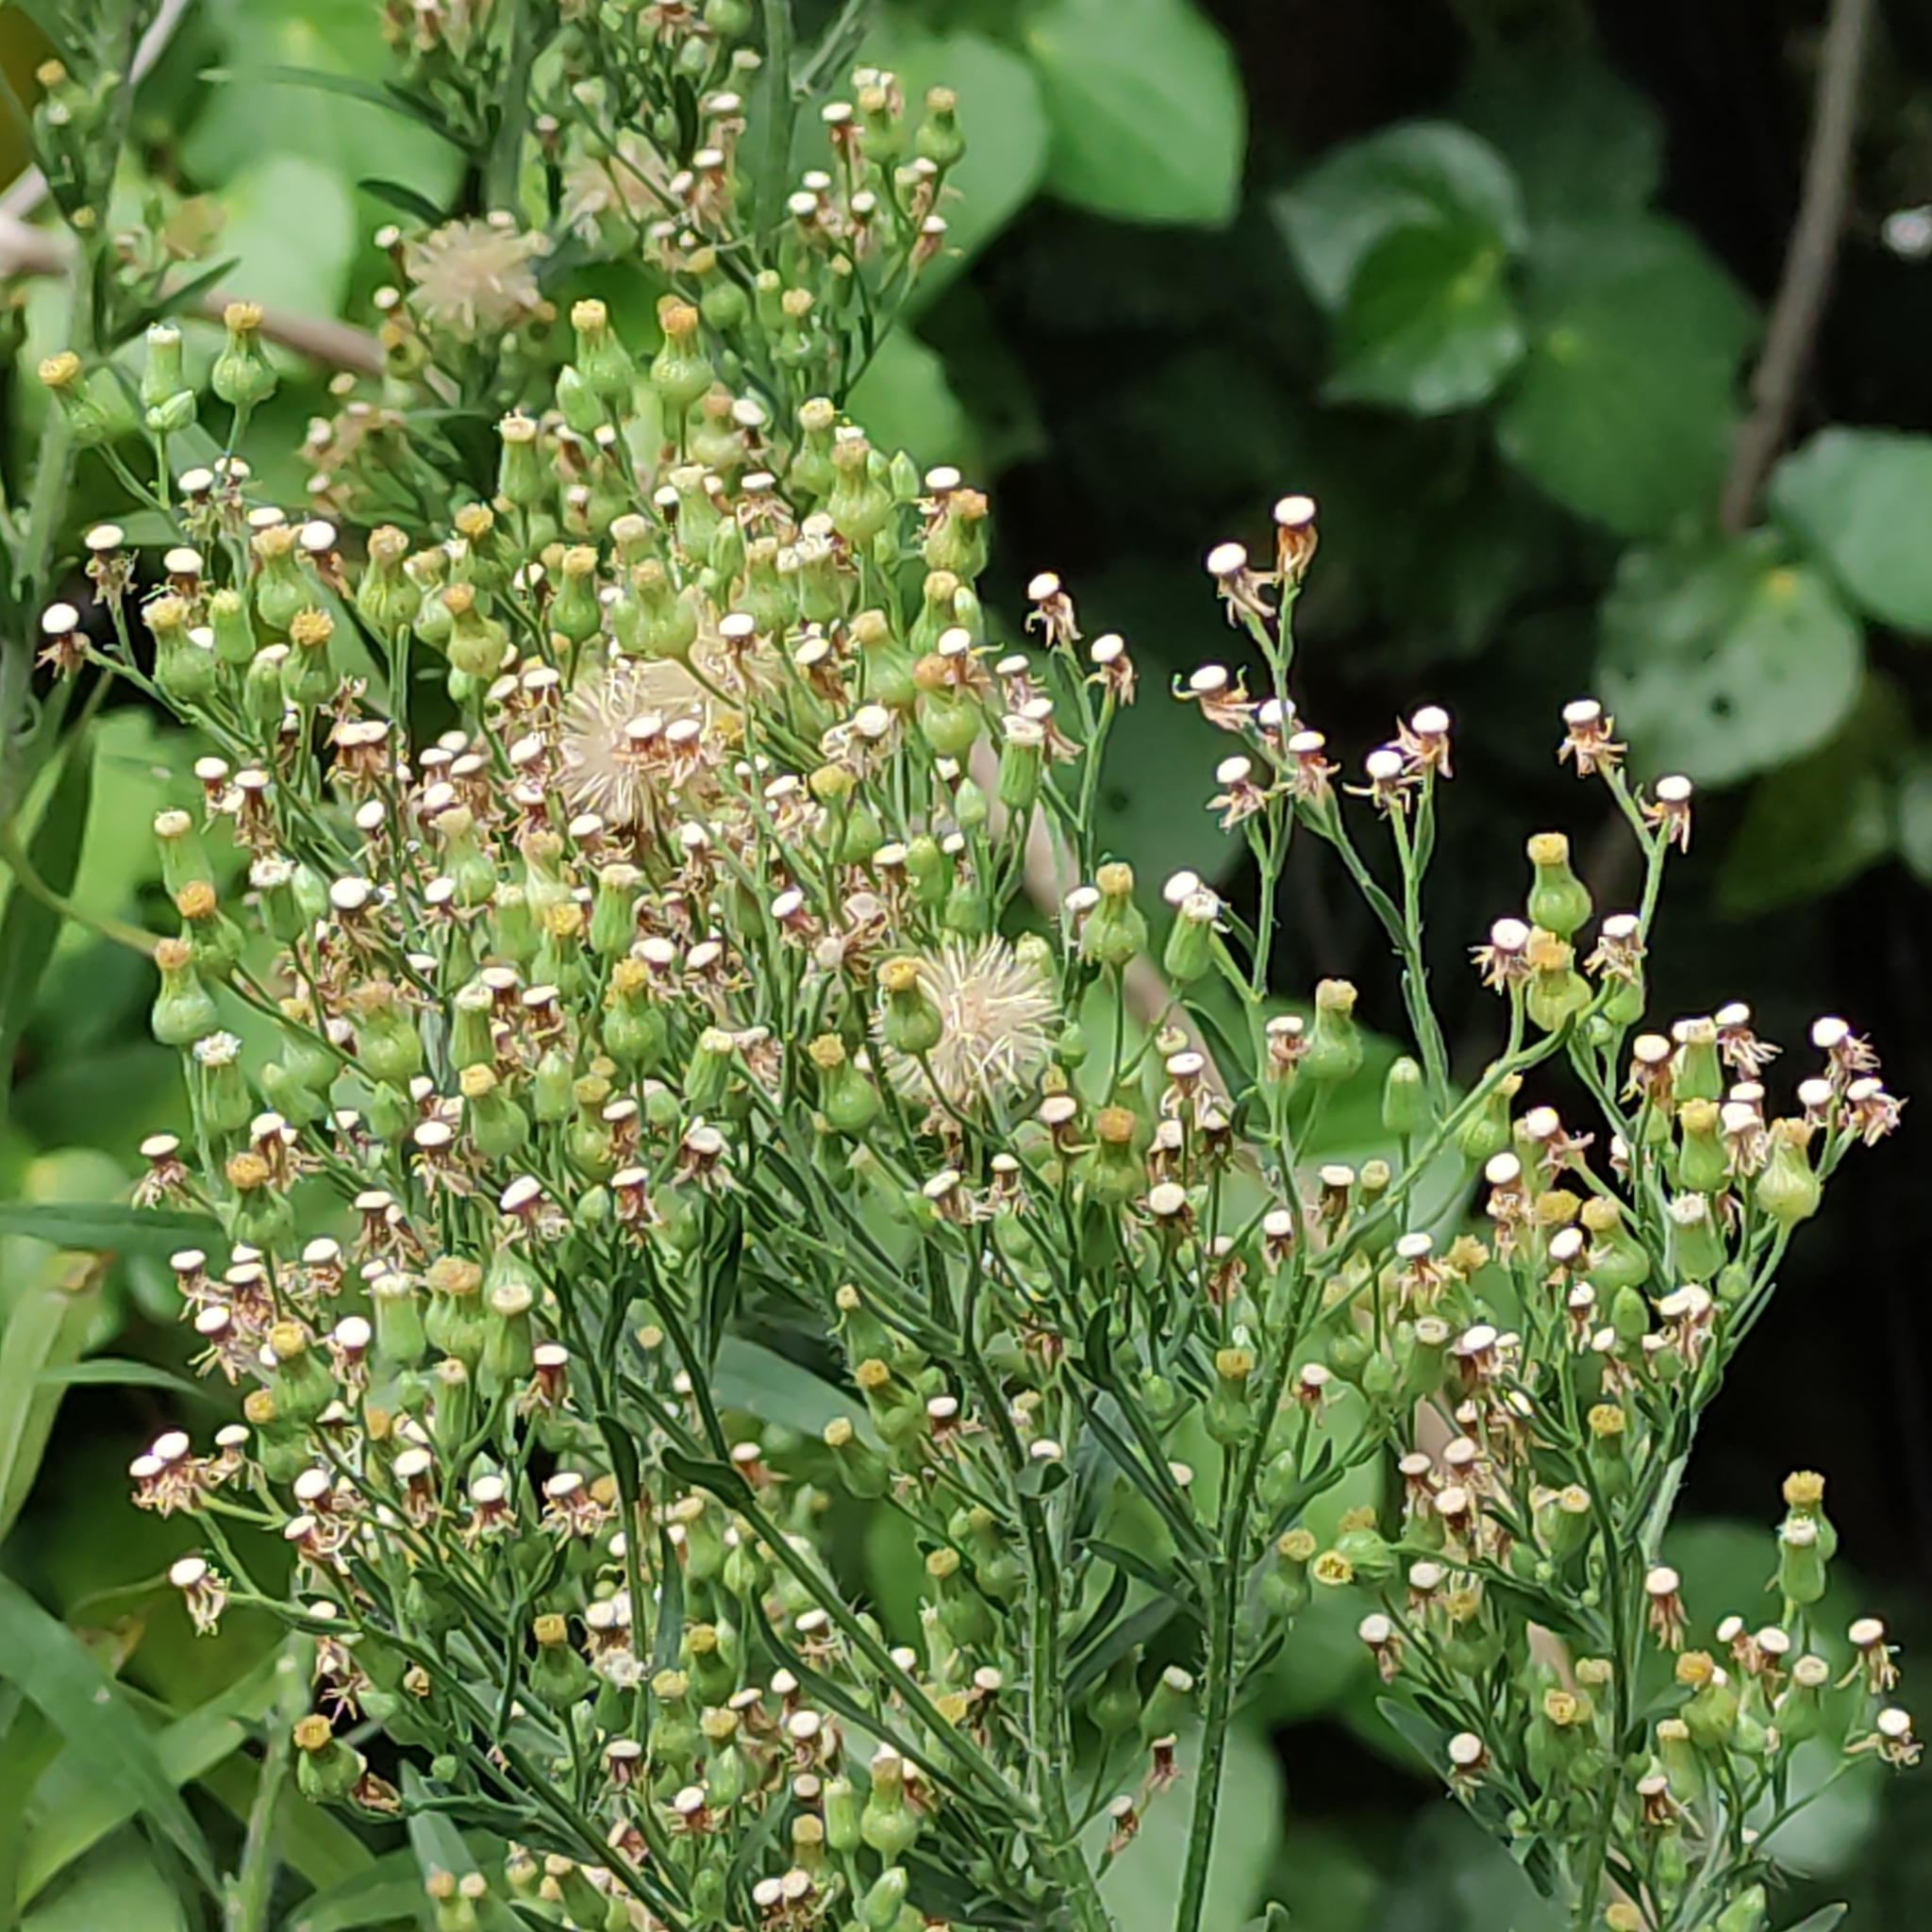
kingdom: Plantae
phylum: Tracheophyta
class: Magnoliopsida
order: Asterales
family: Asteraceae
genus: Erigeron
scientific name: Erigeron sumatrensis
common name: Daisy
